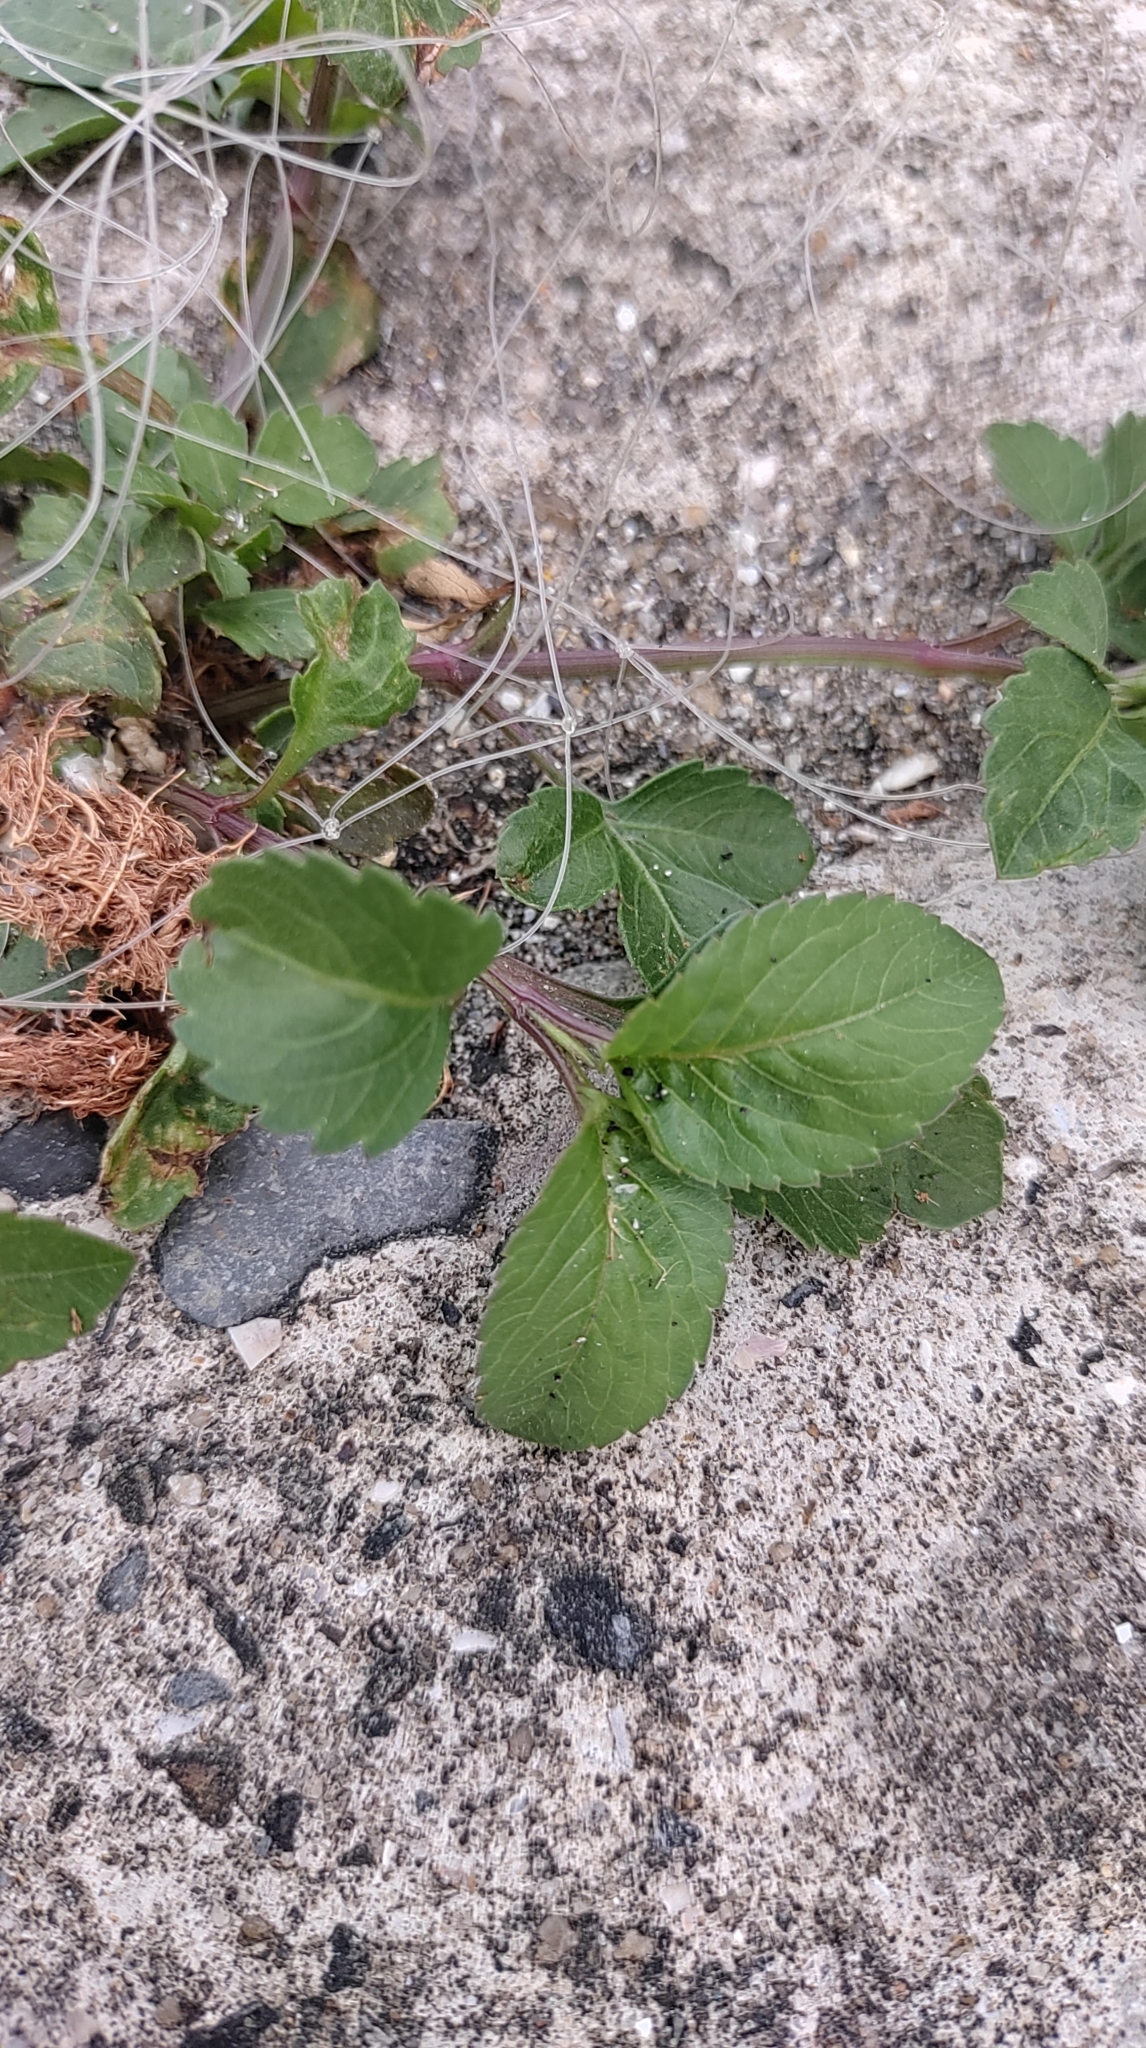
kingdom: Plantae
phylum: Tracheophyta
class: Magnoliopsida
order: Asterales
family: Asteraceae
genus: Bidens
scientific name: Bidens alba
